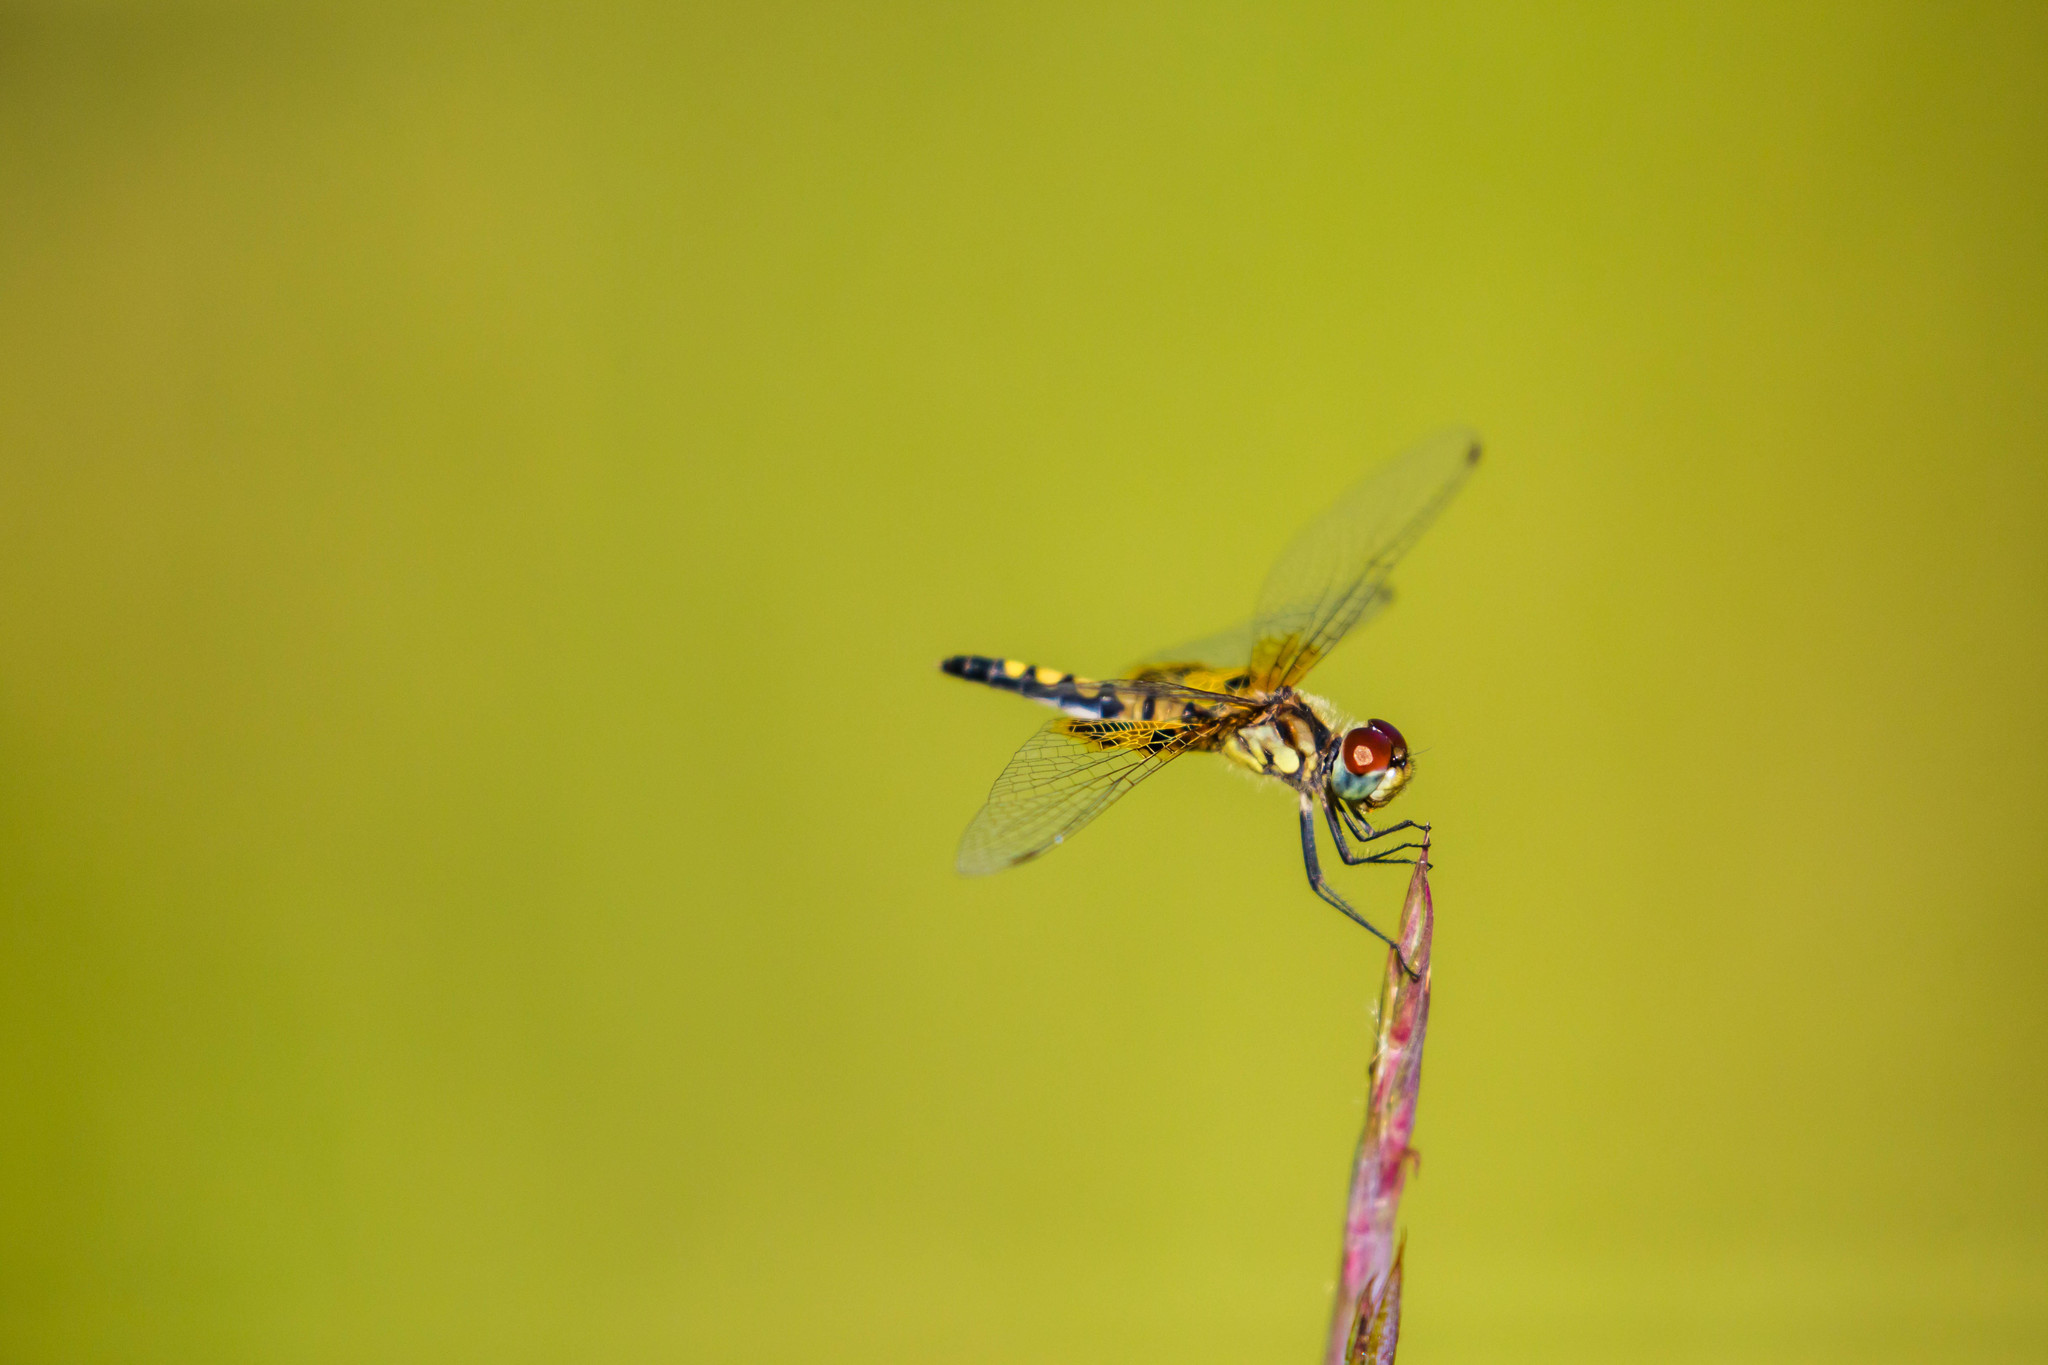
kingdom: Animalia
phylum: Arthropoda
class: Insecta
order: Odonata
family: Libellulidae
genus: Celithemis
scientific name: Celithemis amanda
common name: Amanda's pennant
